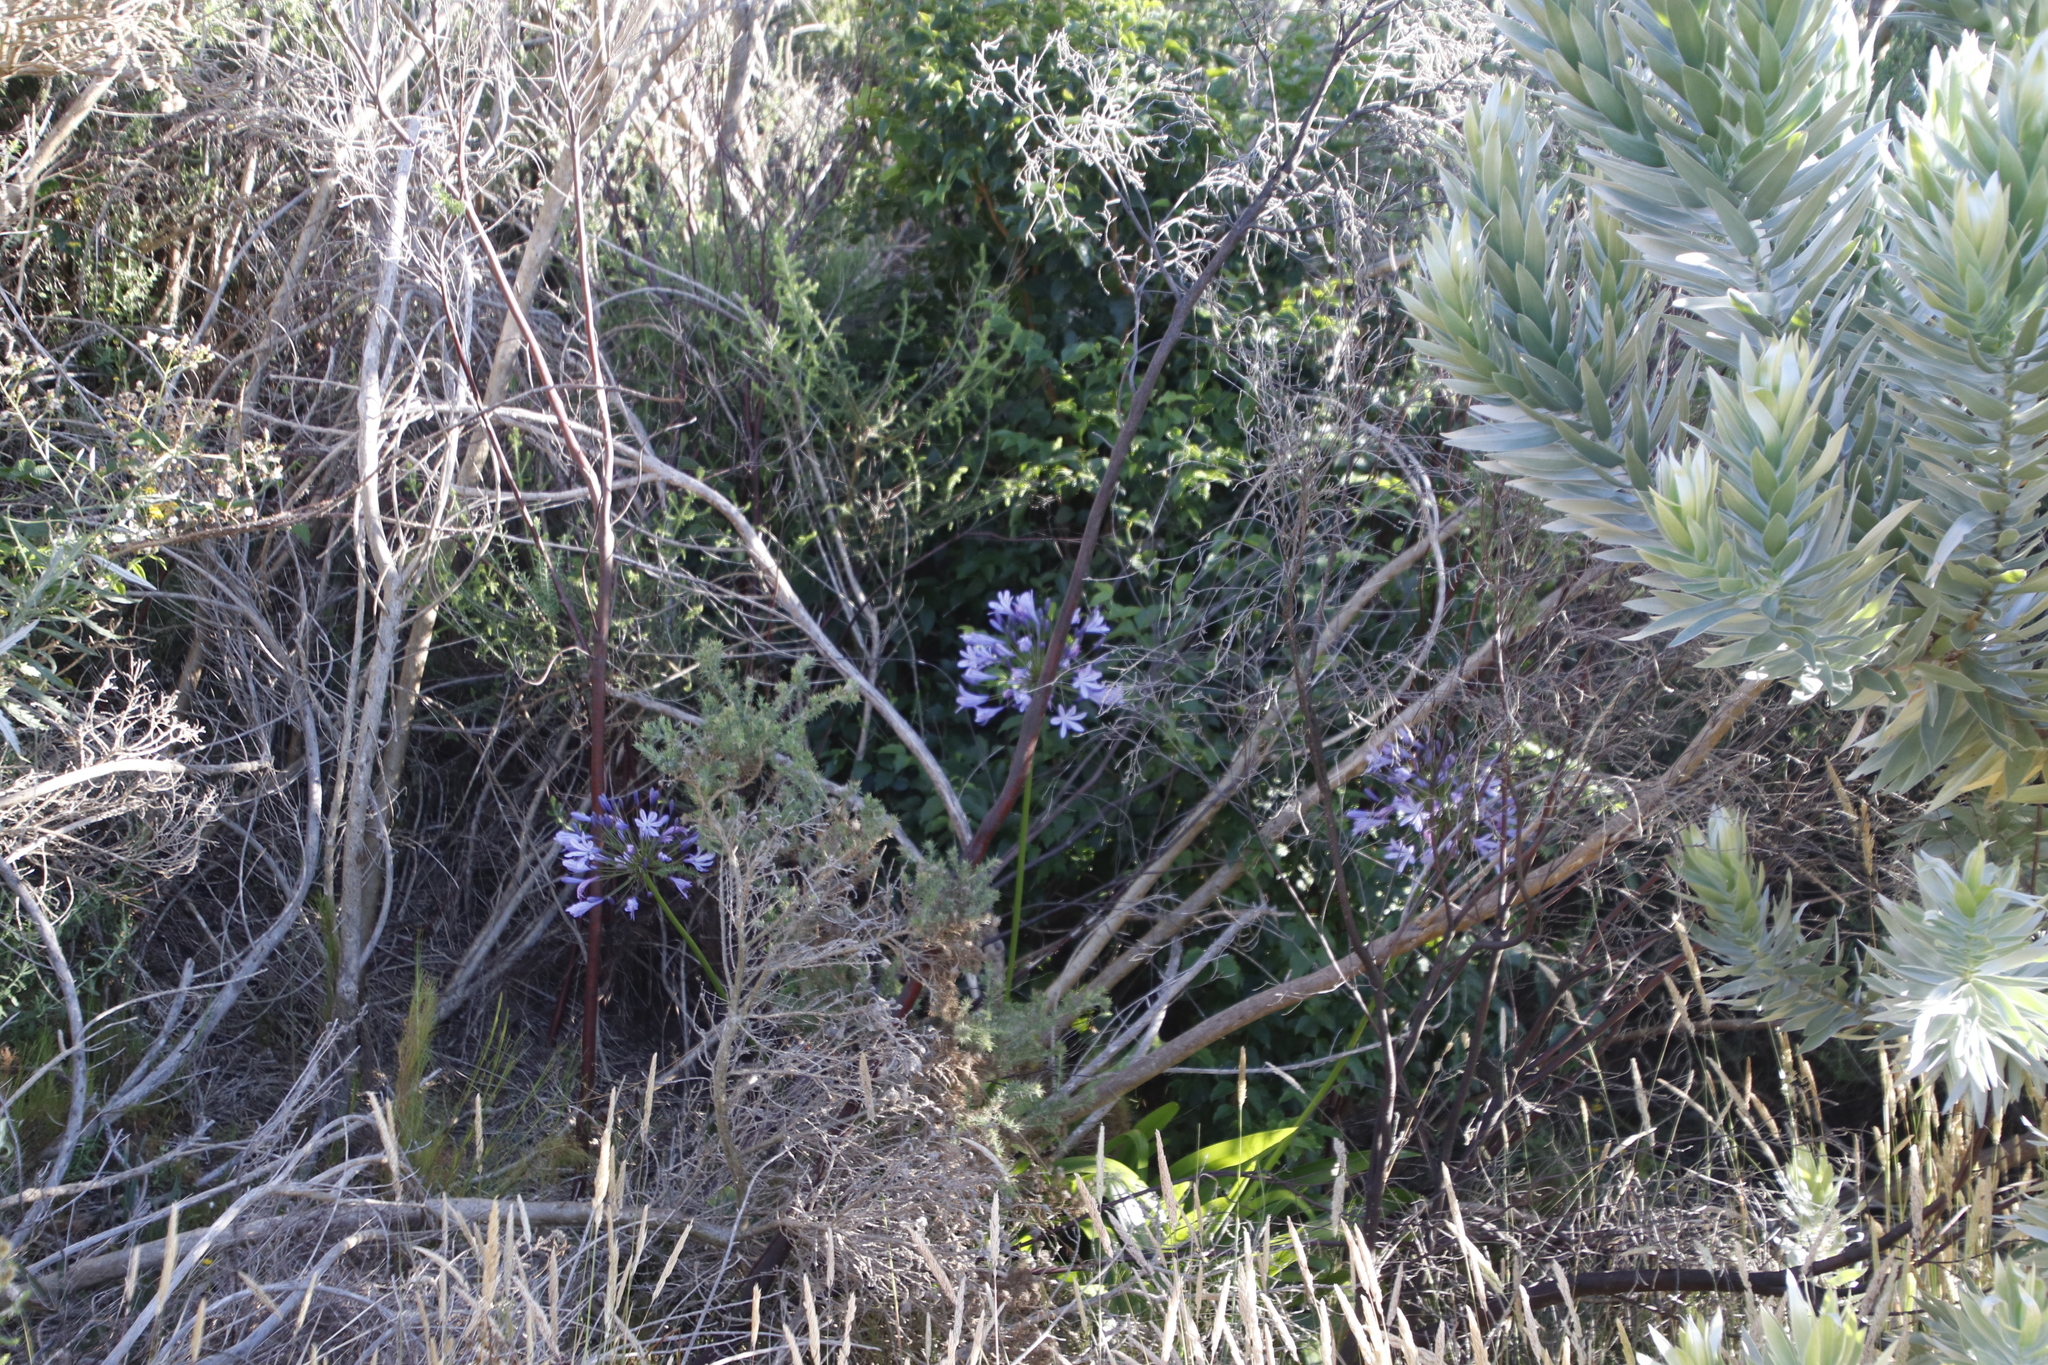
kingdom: Plantae
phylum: Tracheophyta
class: Liliopsida
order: Asparagales
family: Amaryllidaceae
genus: Agapanthus
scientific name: Agapanthus praecox
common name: African-lily
